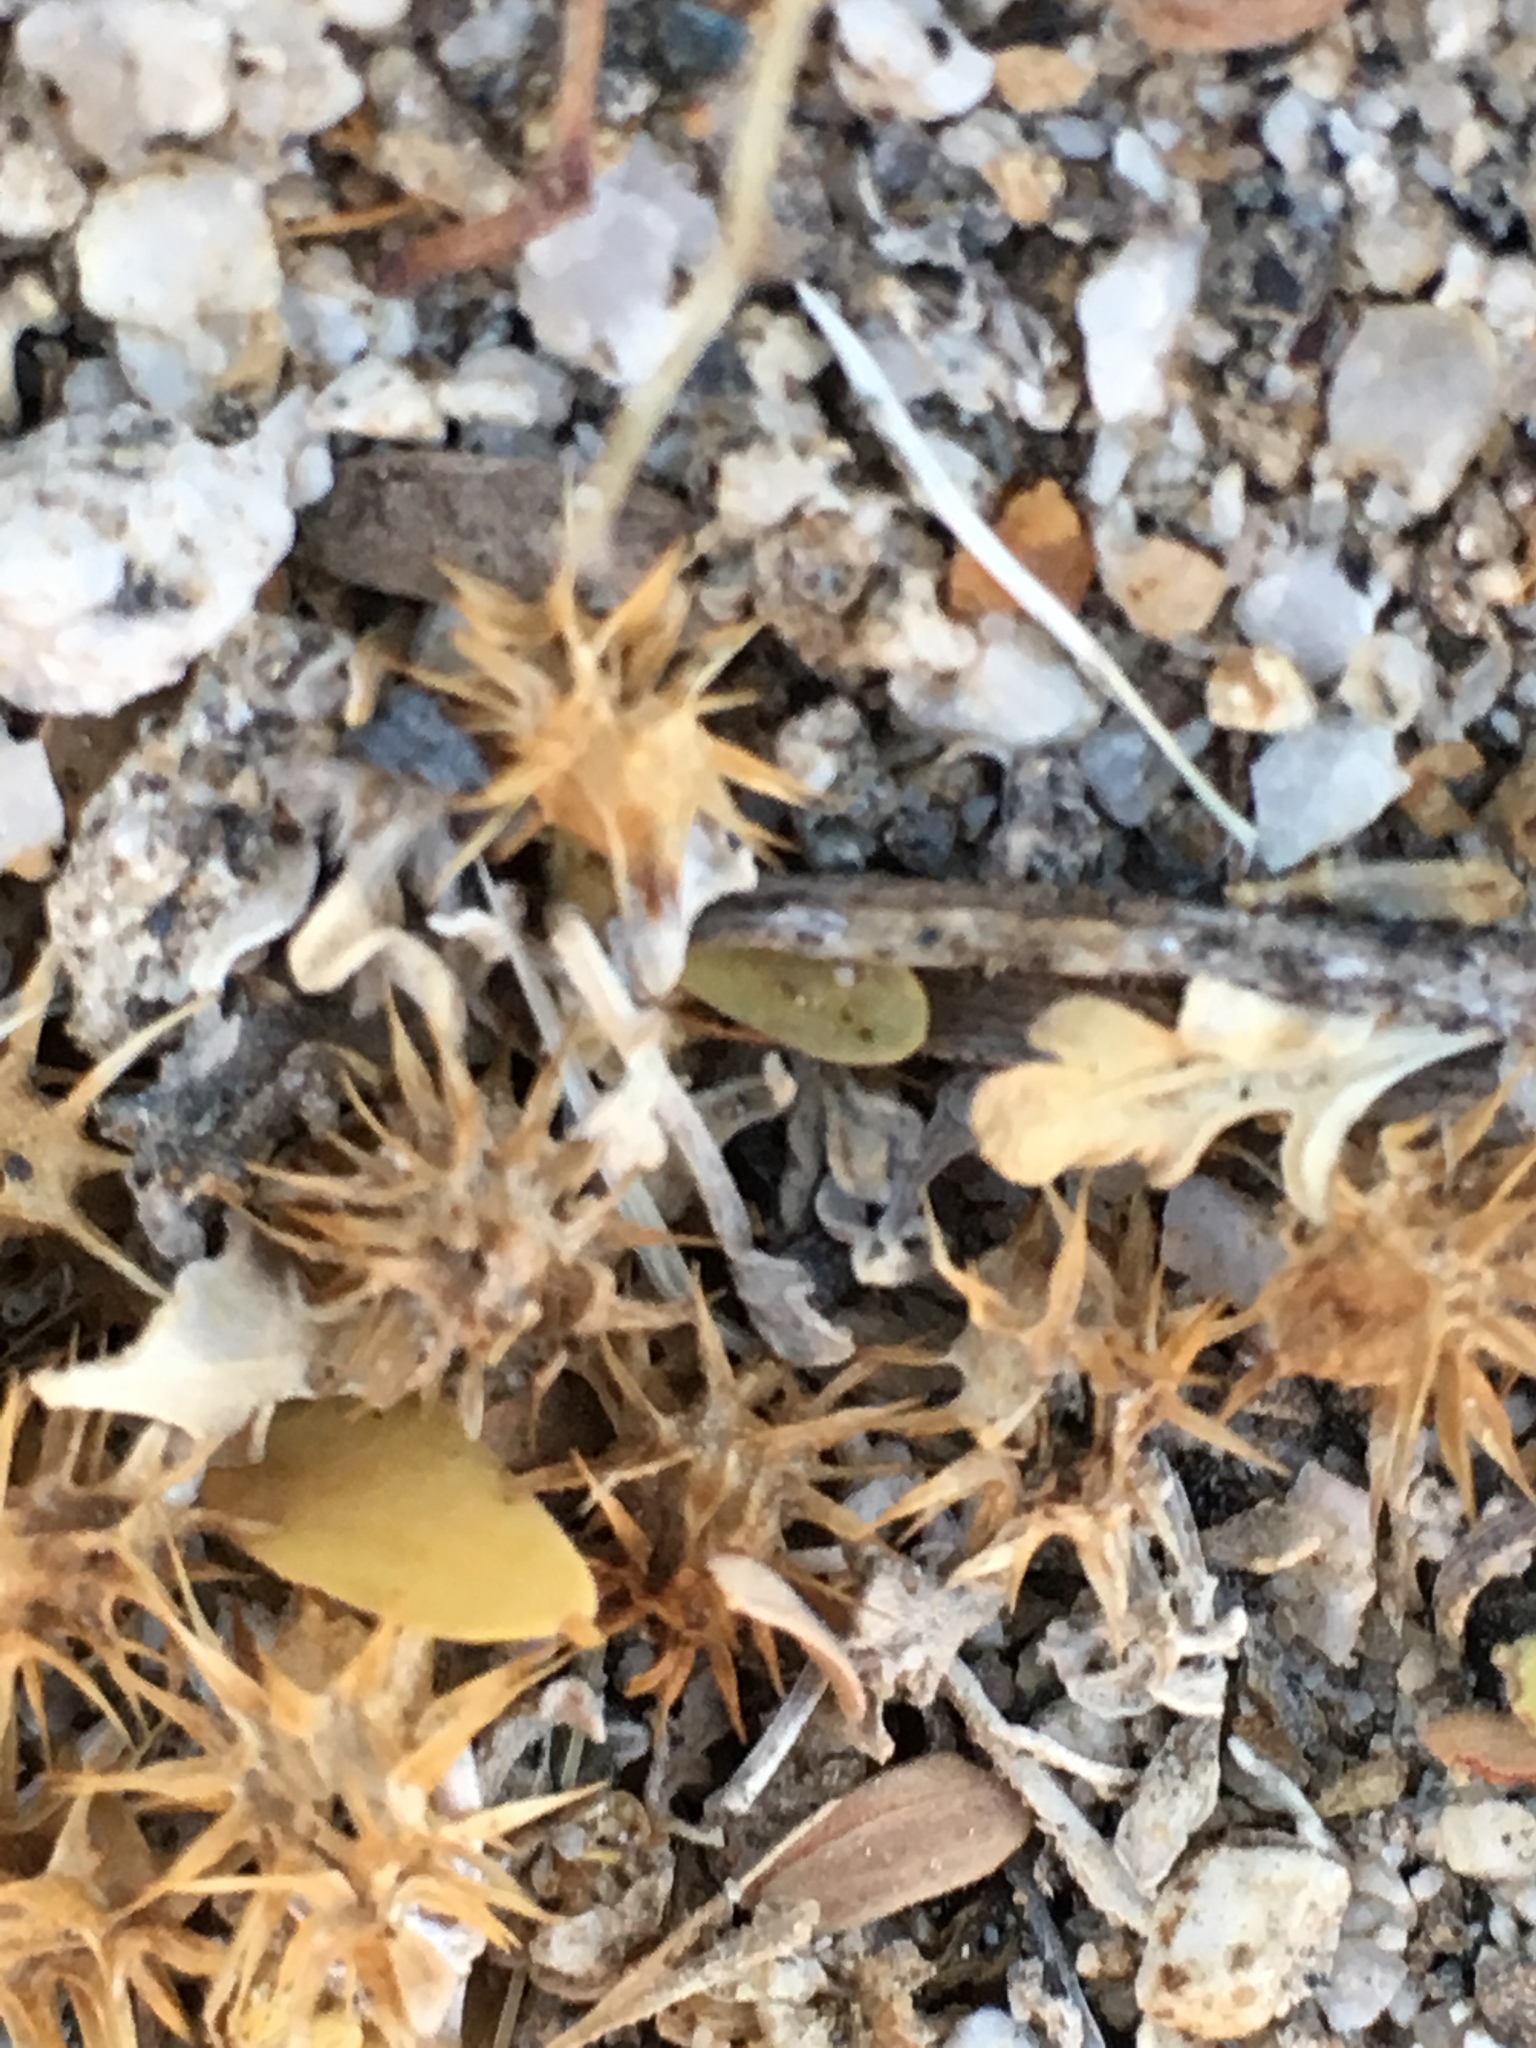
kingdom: Plantae
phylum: Tracheophyta
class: Magnoliopsida
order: Asterales
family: Asteraceae
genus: Ambrosia
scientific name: Ambrosia dumosa
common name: Bur-sage
